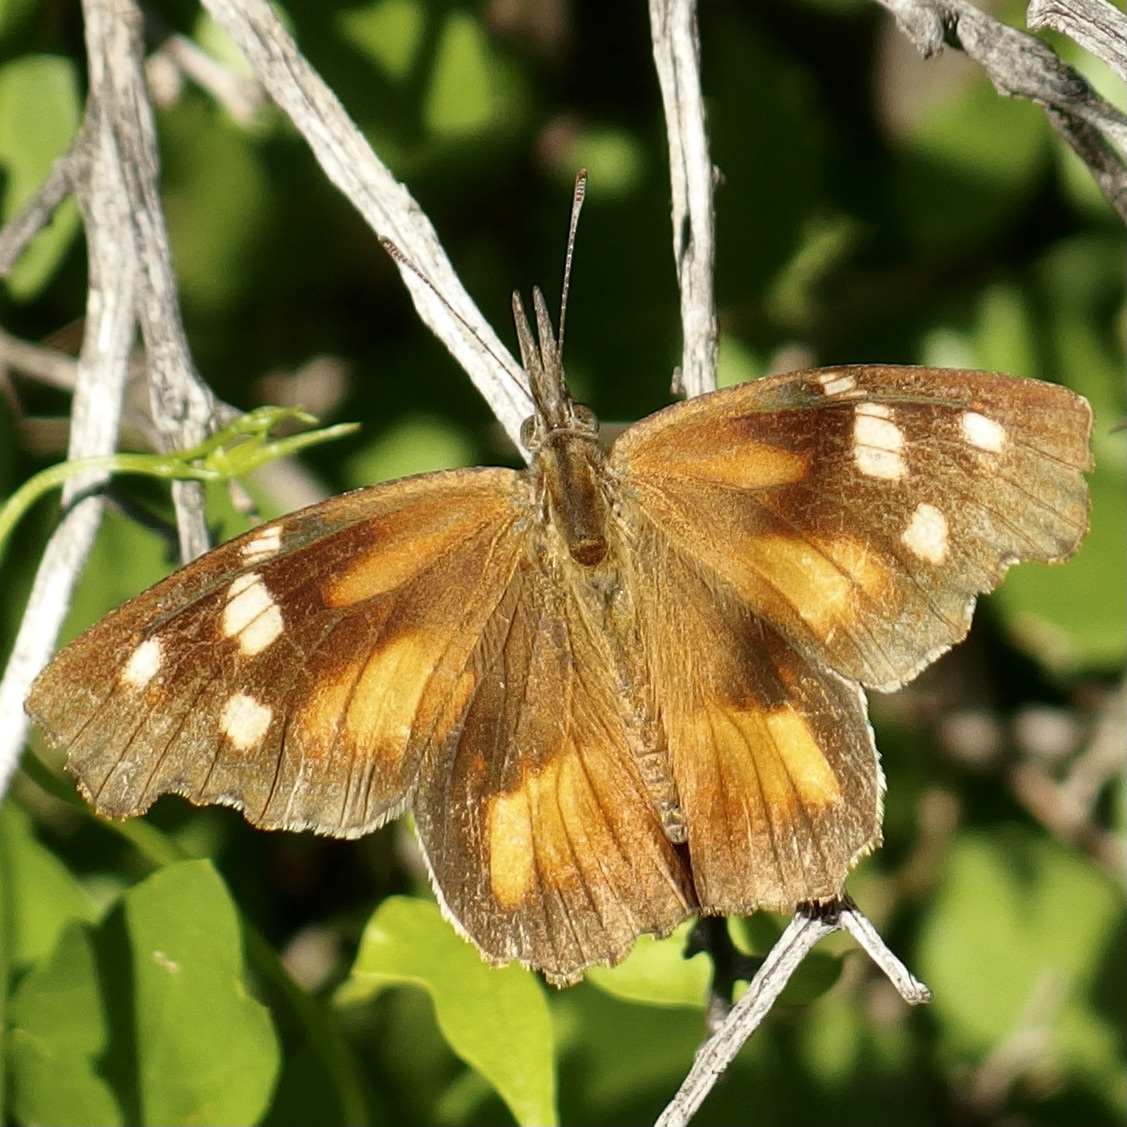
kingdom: Animalia
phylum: Arthropoda
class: Insecta
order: Lepidoptera
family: Nymphalidae
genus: Libytheana
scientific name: Libytheana carinenta
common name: American snout
